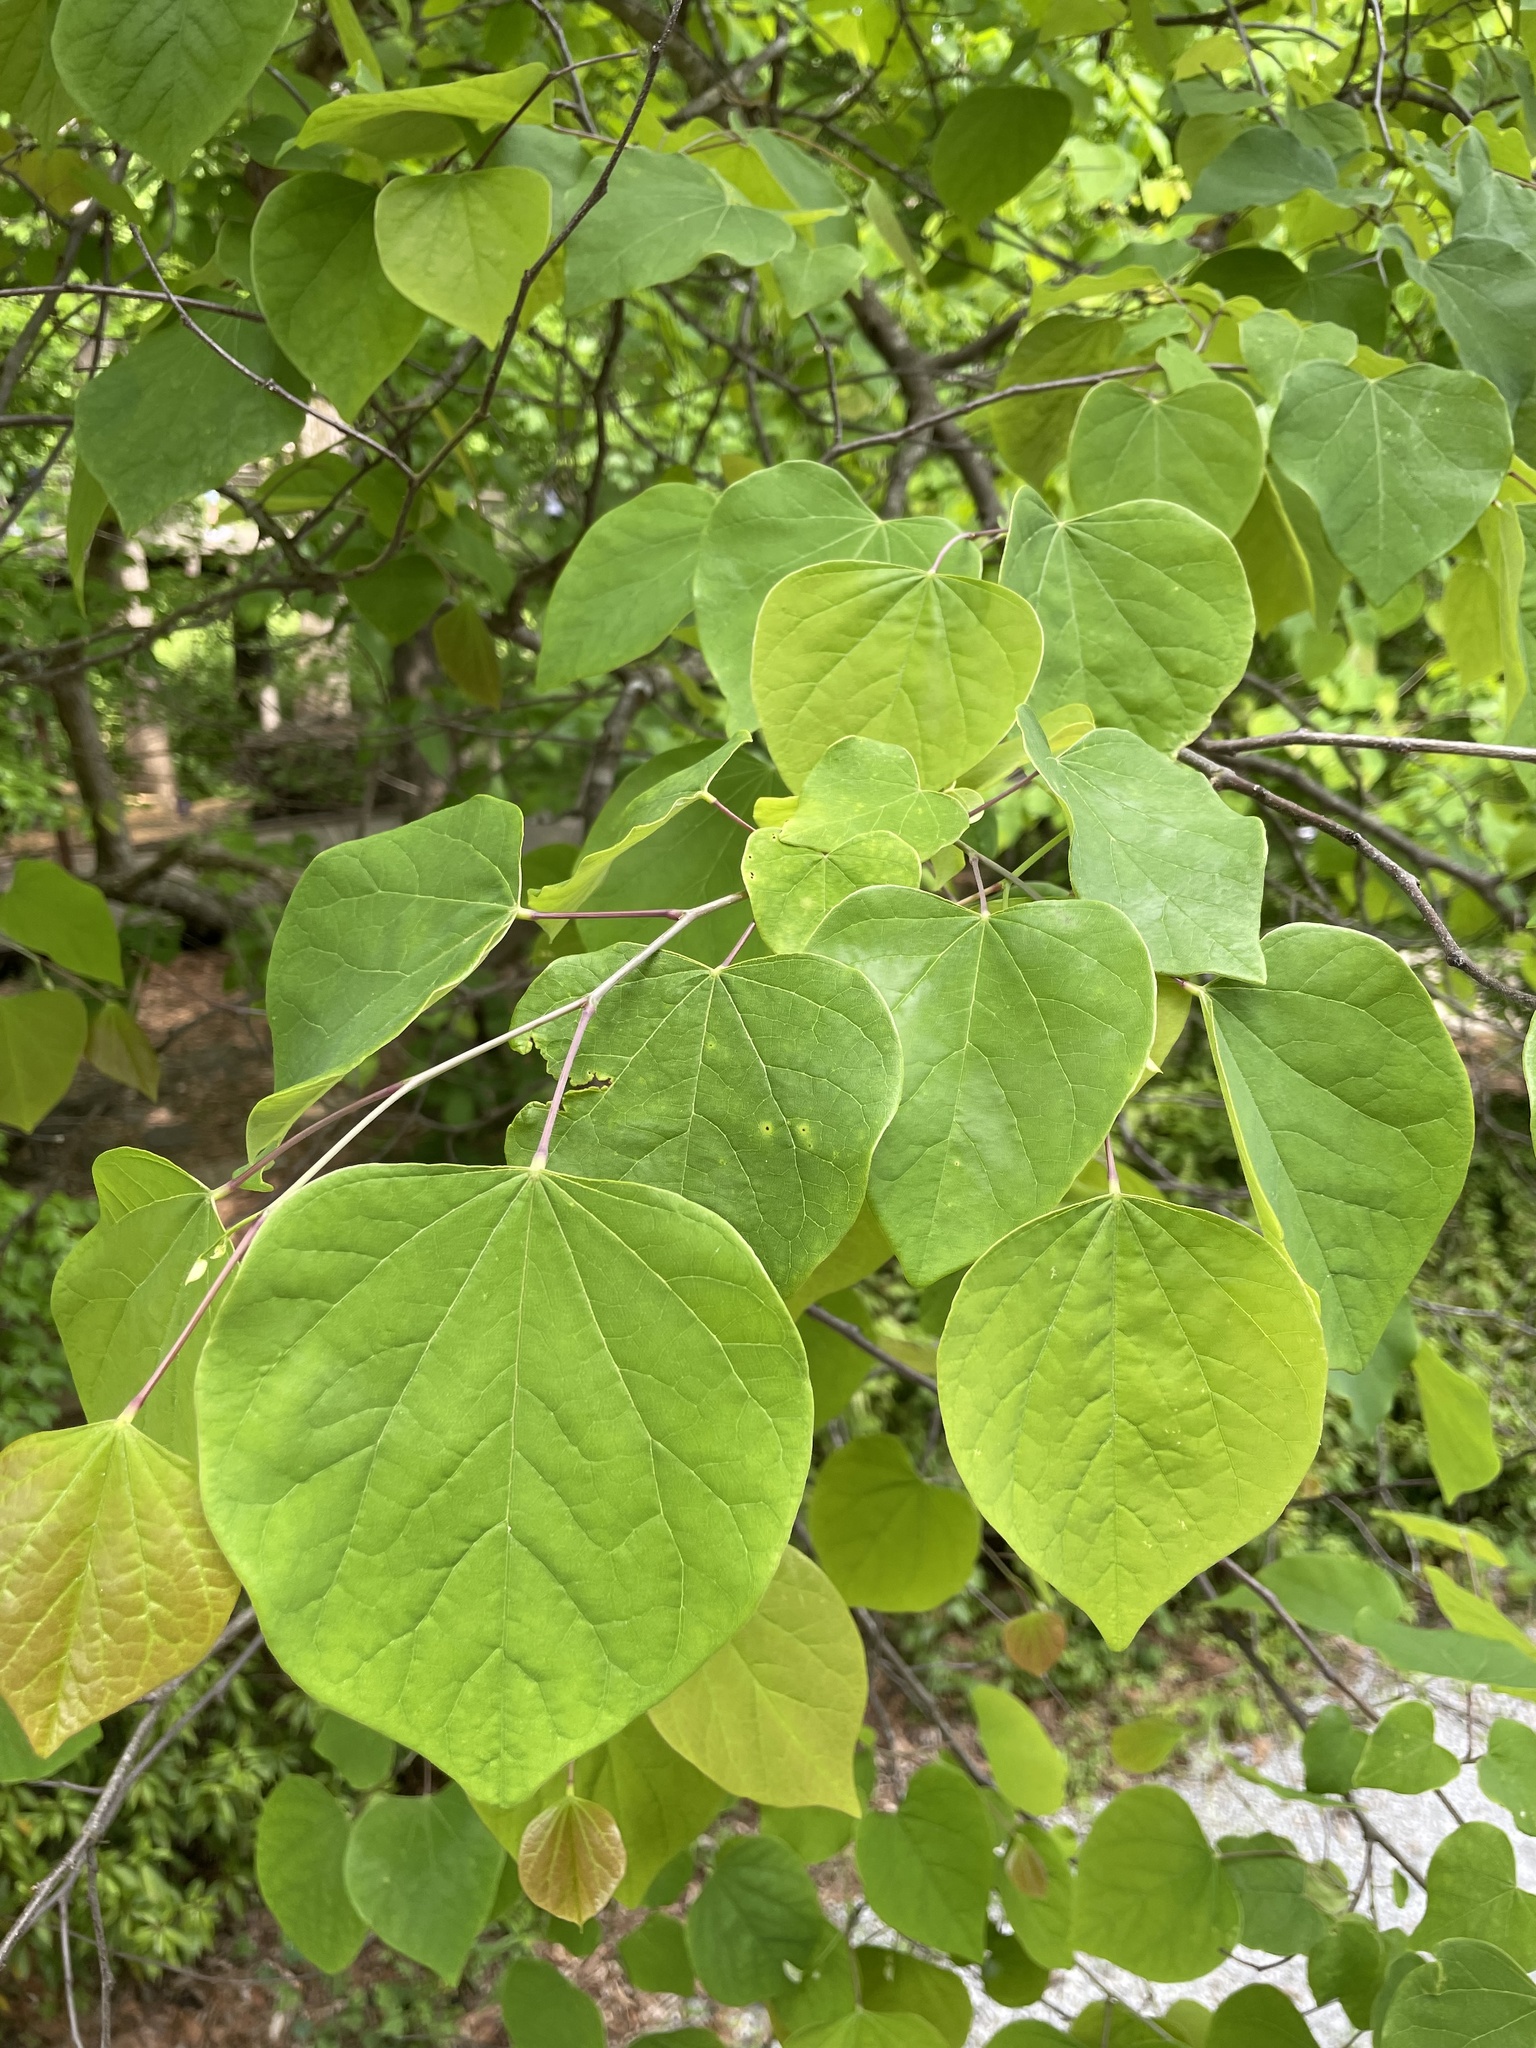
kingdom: Plantae
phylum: Tracheophyta
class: Magnoliopsida
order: Fabales
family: Fabaceae
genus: Cercis
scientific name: Cercis canadensis
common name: Eastern redbud
